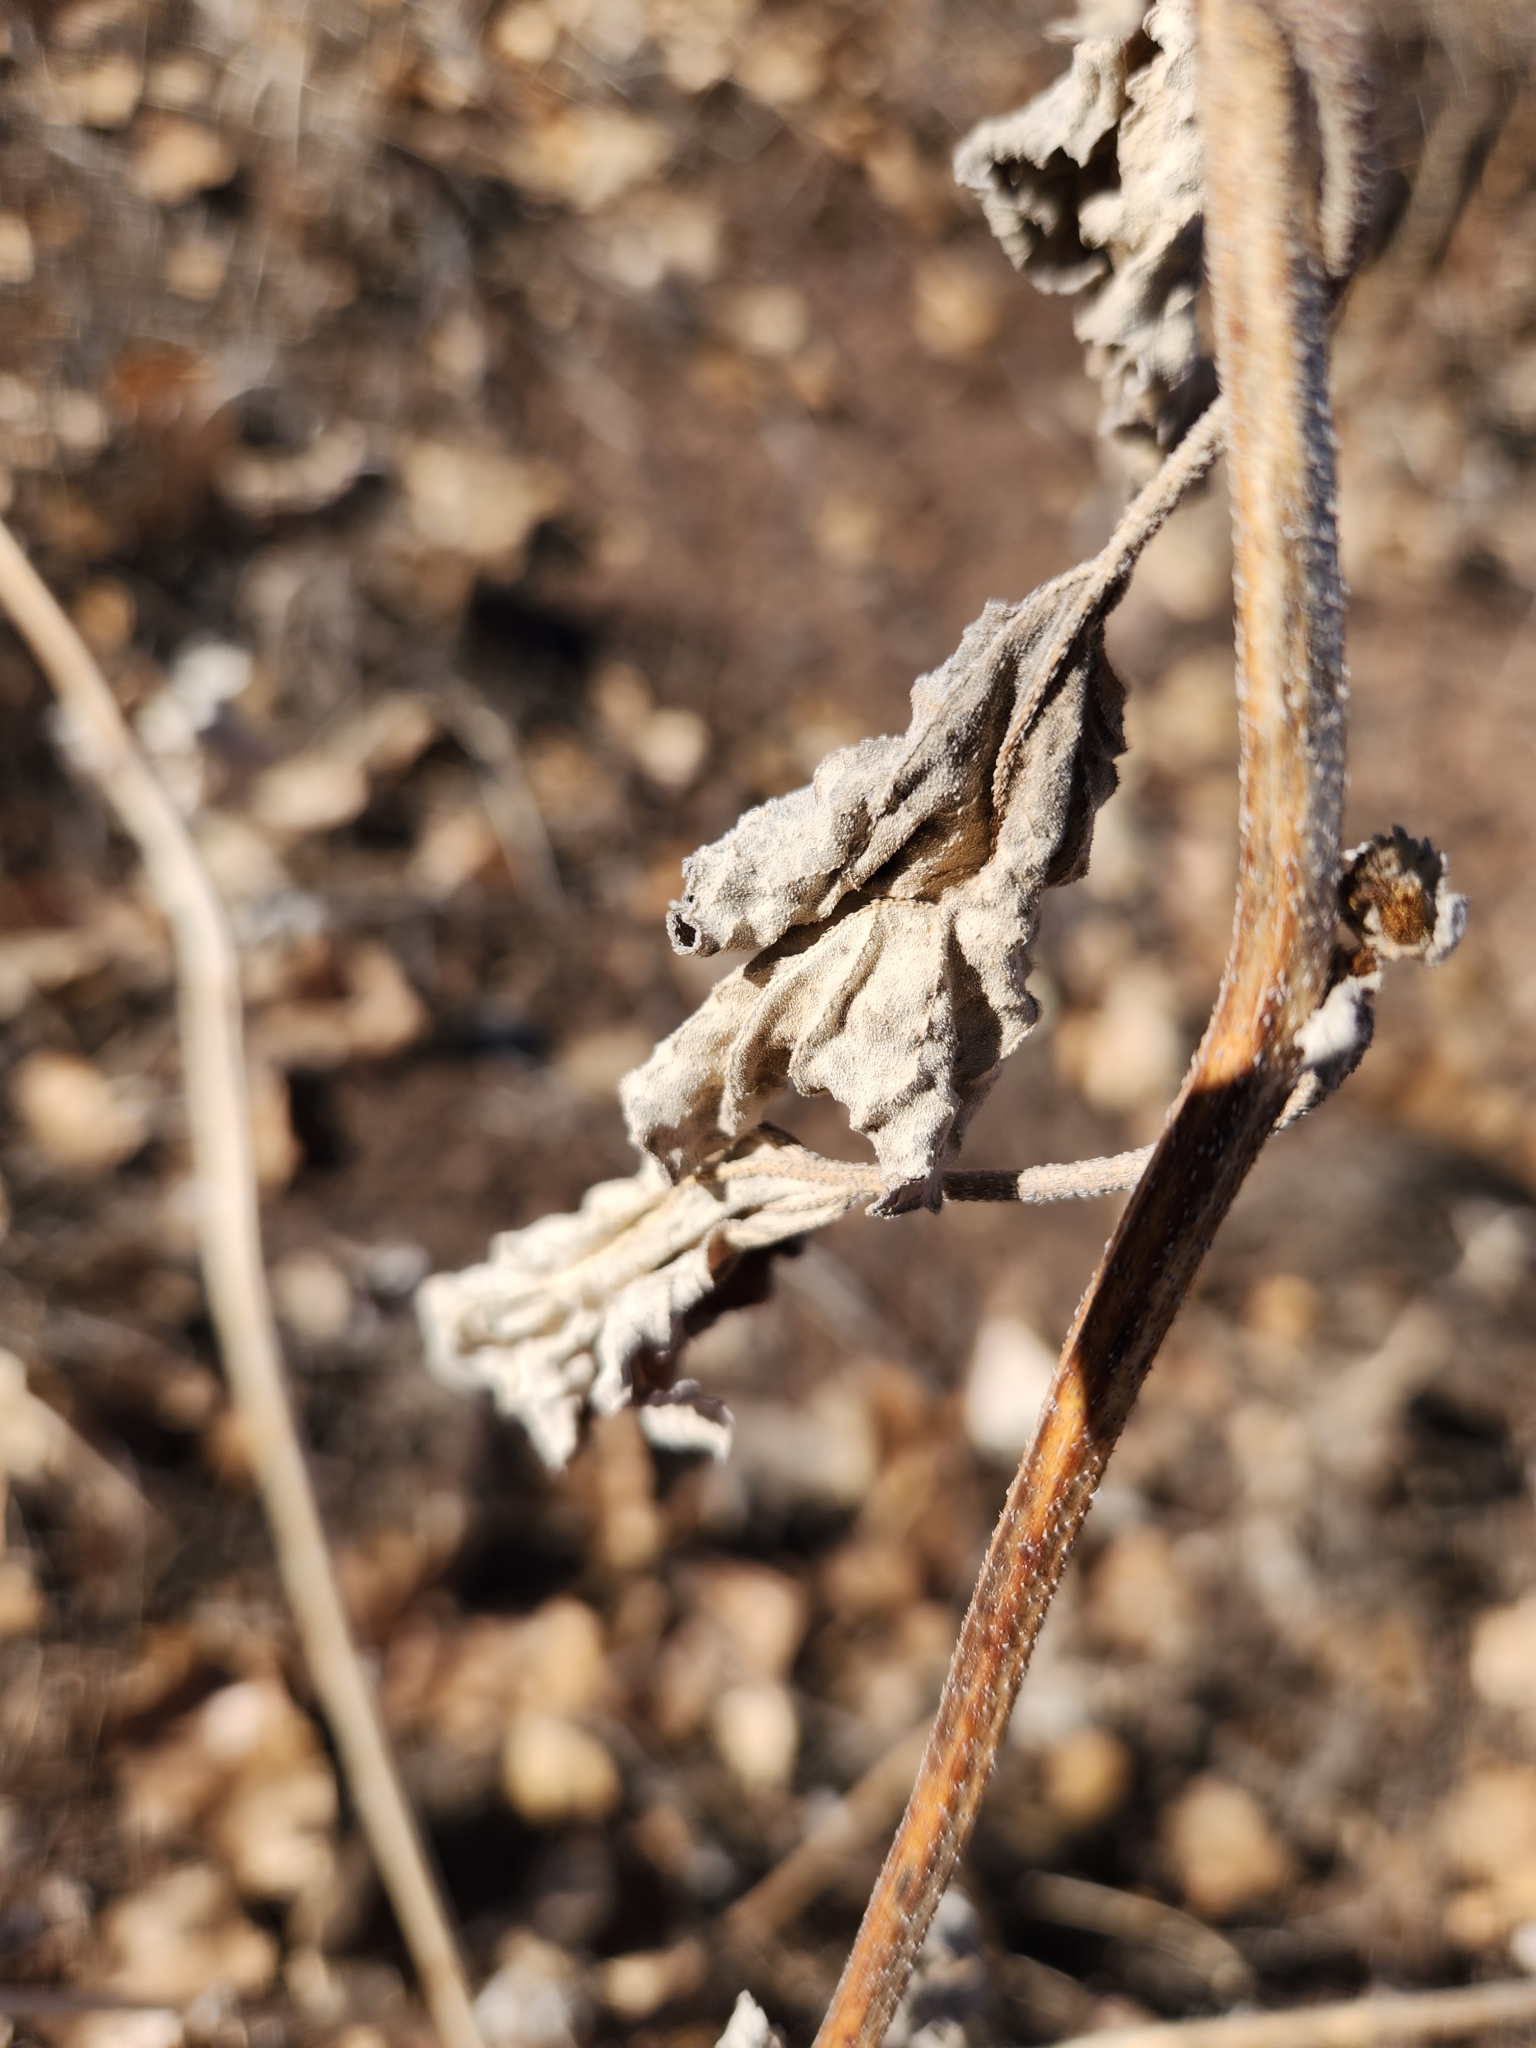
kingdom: Plantae
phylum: Tracheophyta
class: Magnoliopsida
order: Asterales
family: Asteraceae
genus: Xanthium
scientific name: Xanthium strumarium
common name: Rough cocklebur
